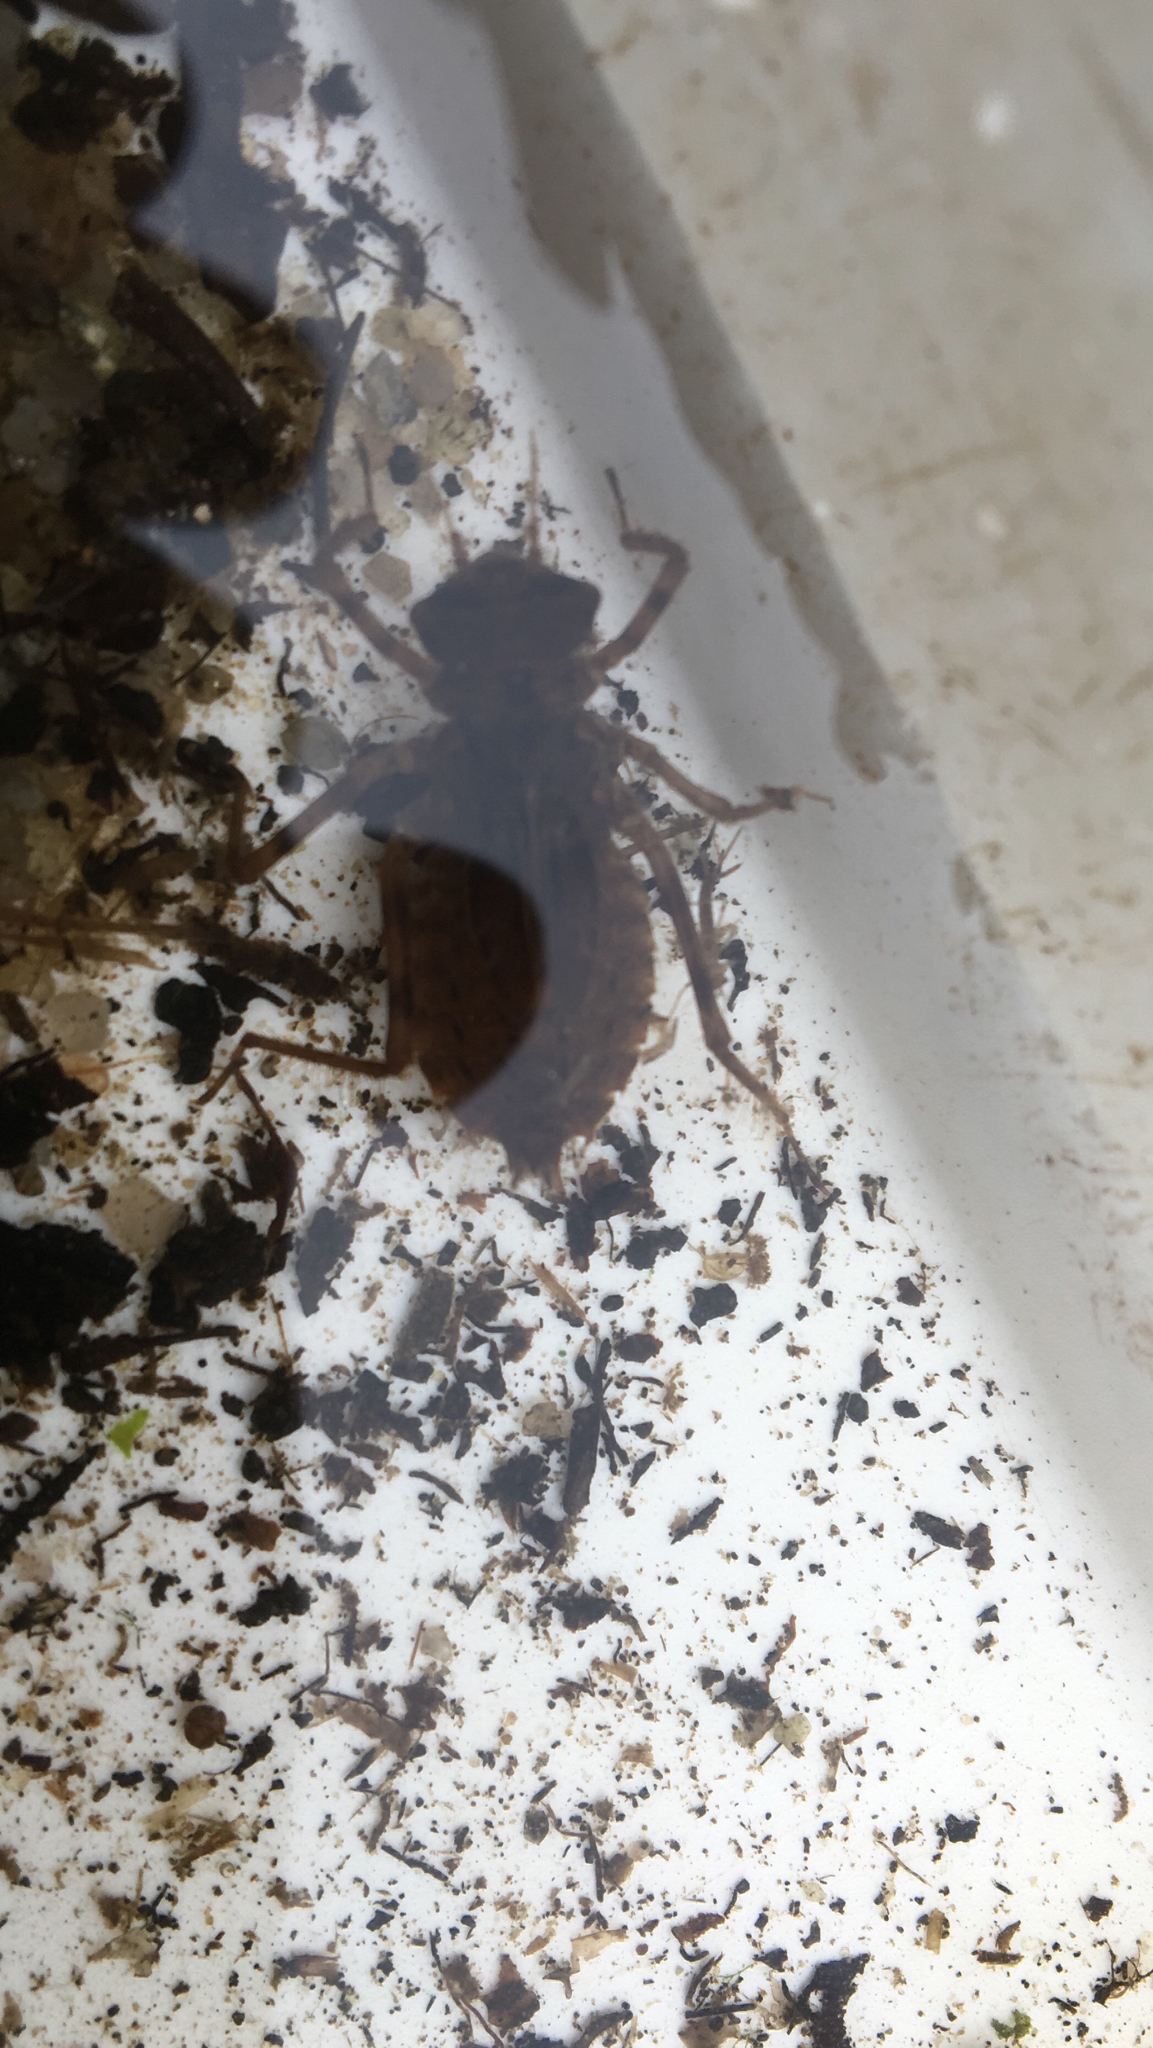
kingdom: Animalia
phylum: Arthropoda
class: Insecta
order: Odonata
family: Corduliidae
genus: Somatochlora
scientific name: Somatochlora metallica
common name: Brilliant emerald
